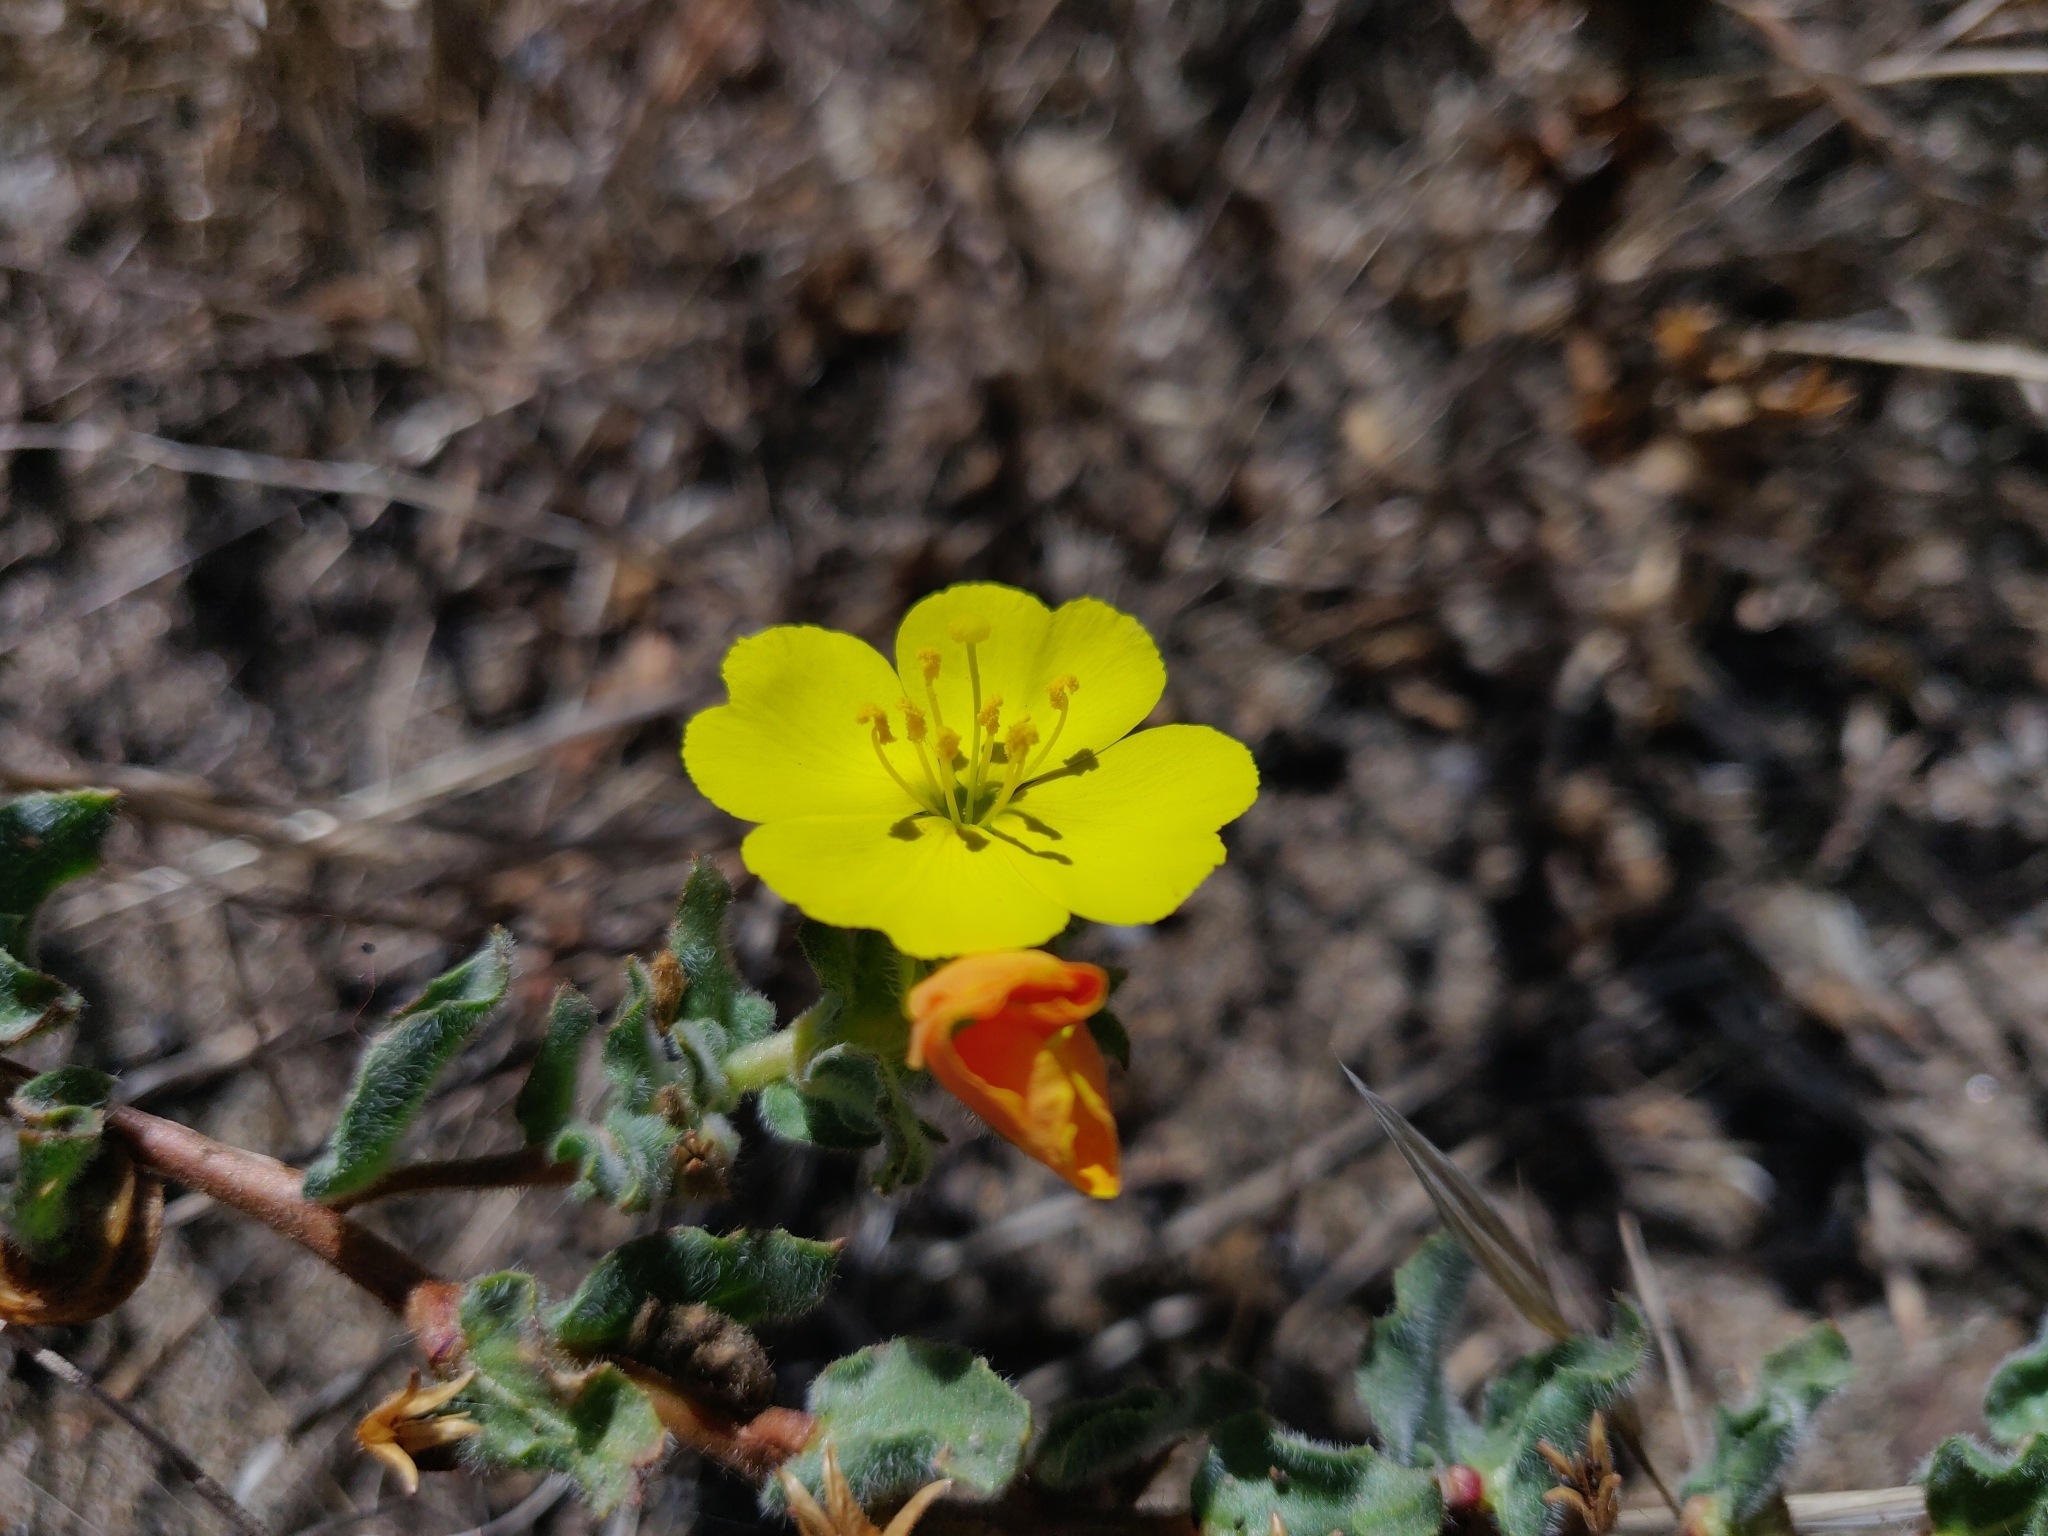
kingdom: Plantae
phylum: Tracheophyta
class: Magnoliopsida
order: Myrtales
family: Onagraceae
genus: Camissoniopsis
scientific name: Camissoniopsis cheiranthifolia
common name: Beach suncup
